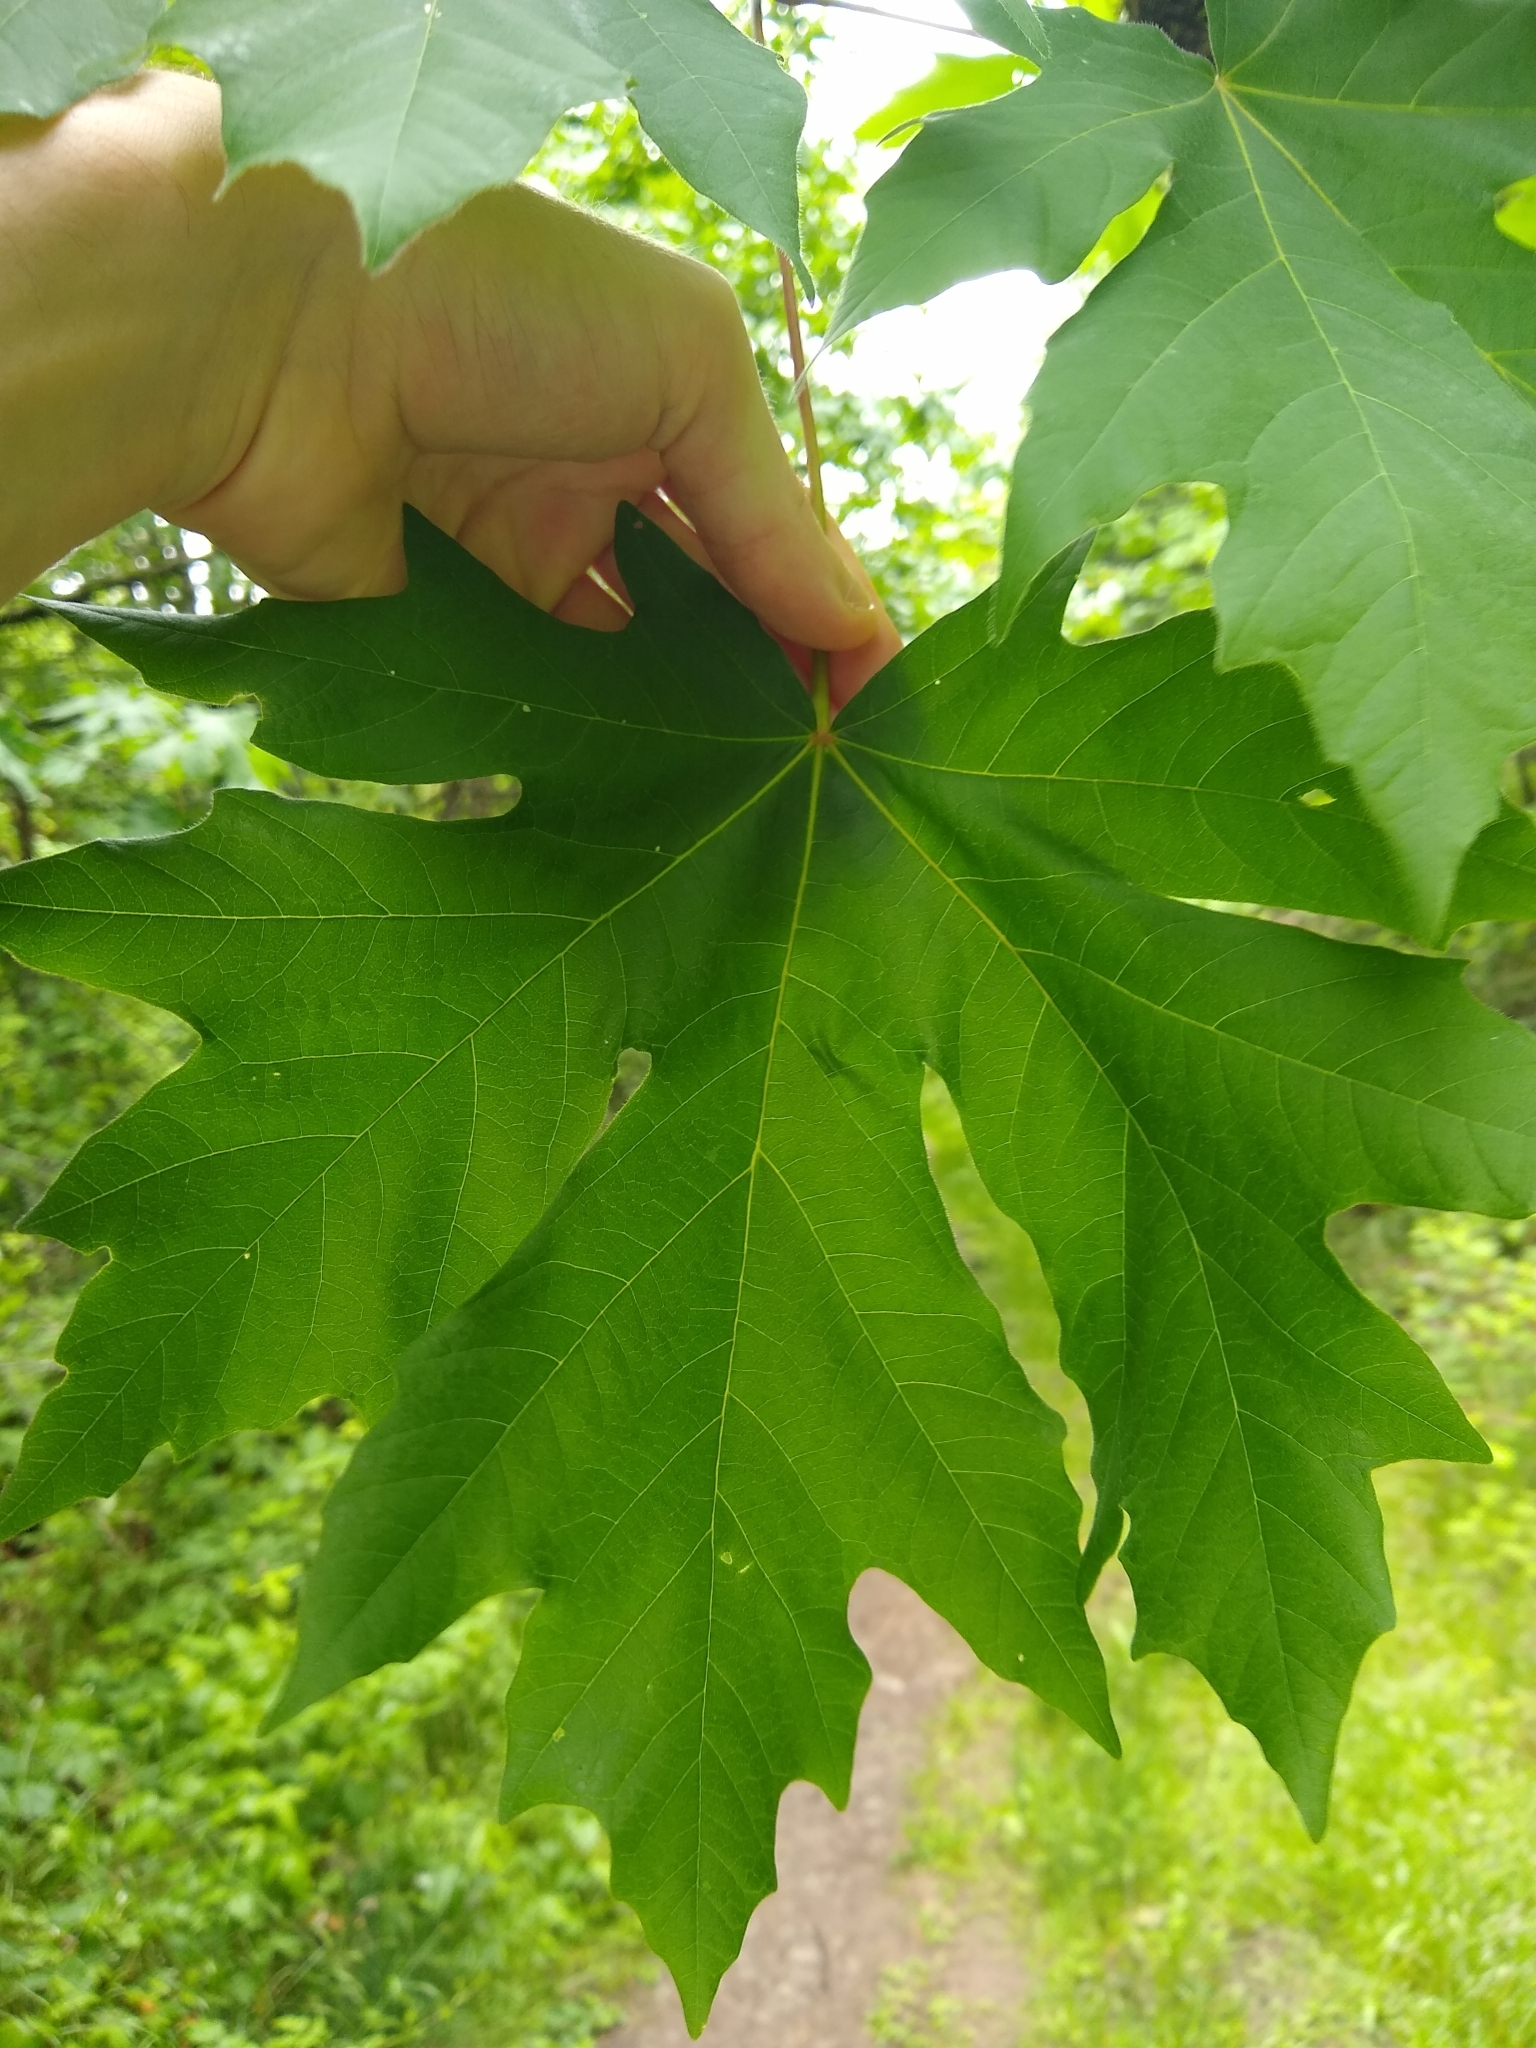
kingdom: Plantae
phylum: Tracheophyta
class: Magnoliopsida
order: Sapindales
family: Sapindaceae
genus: Acer
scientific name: Acer macrophyllum
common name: Oregon maple
